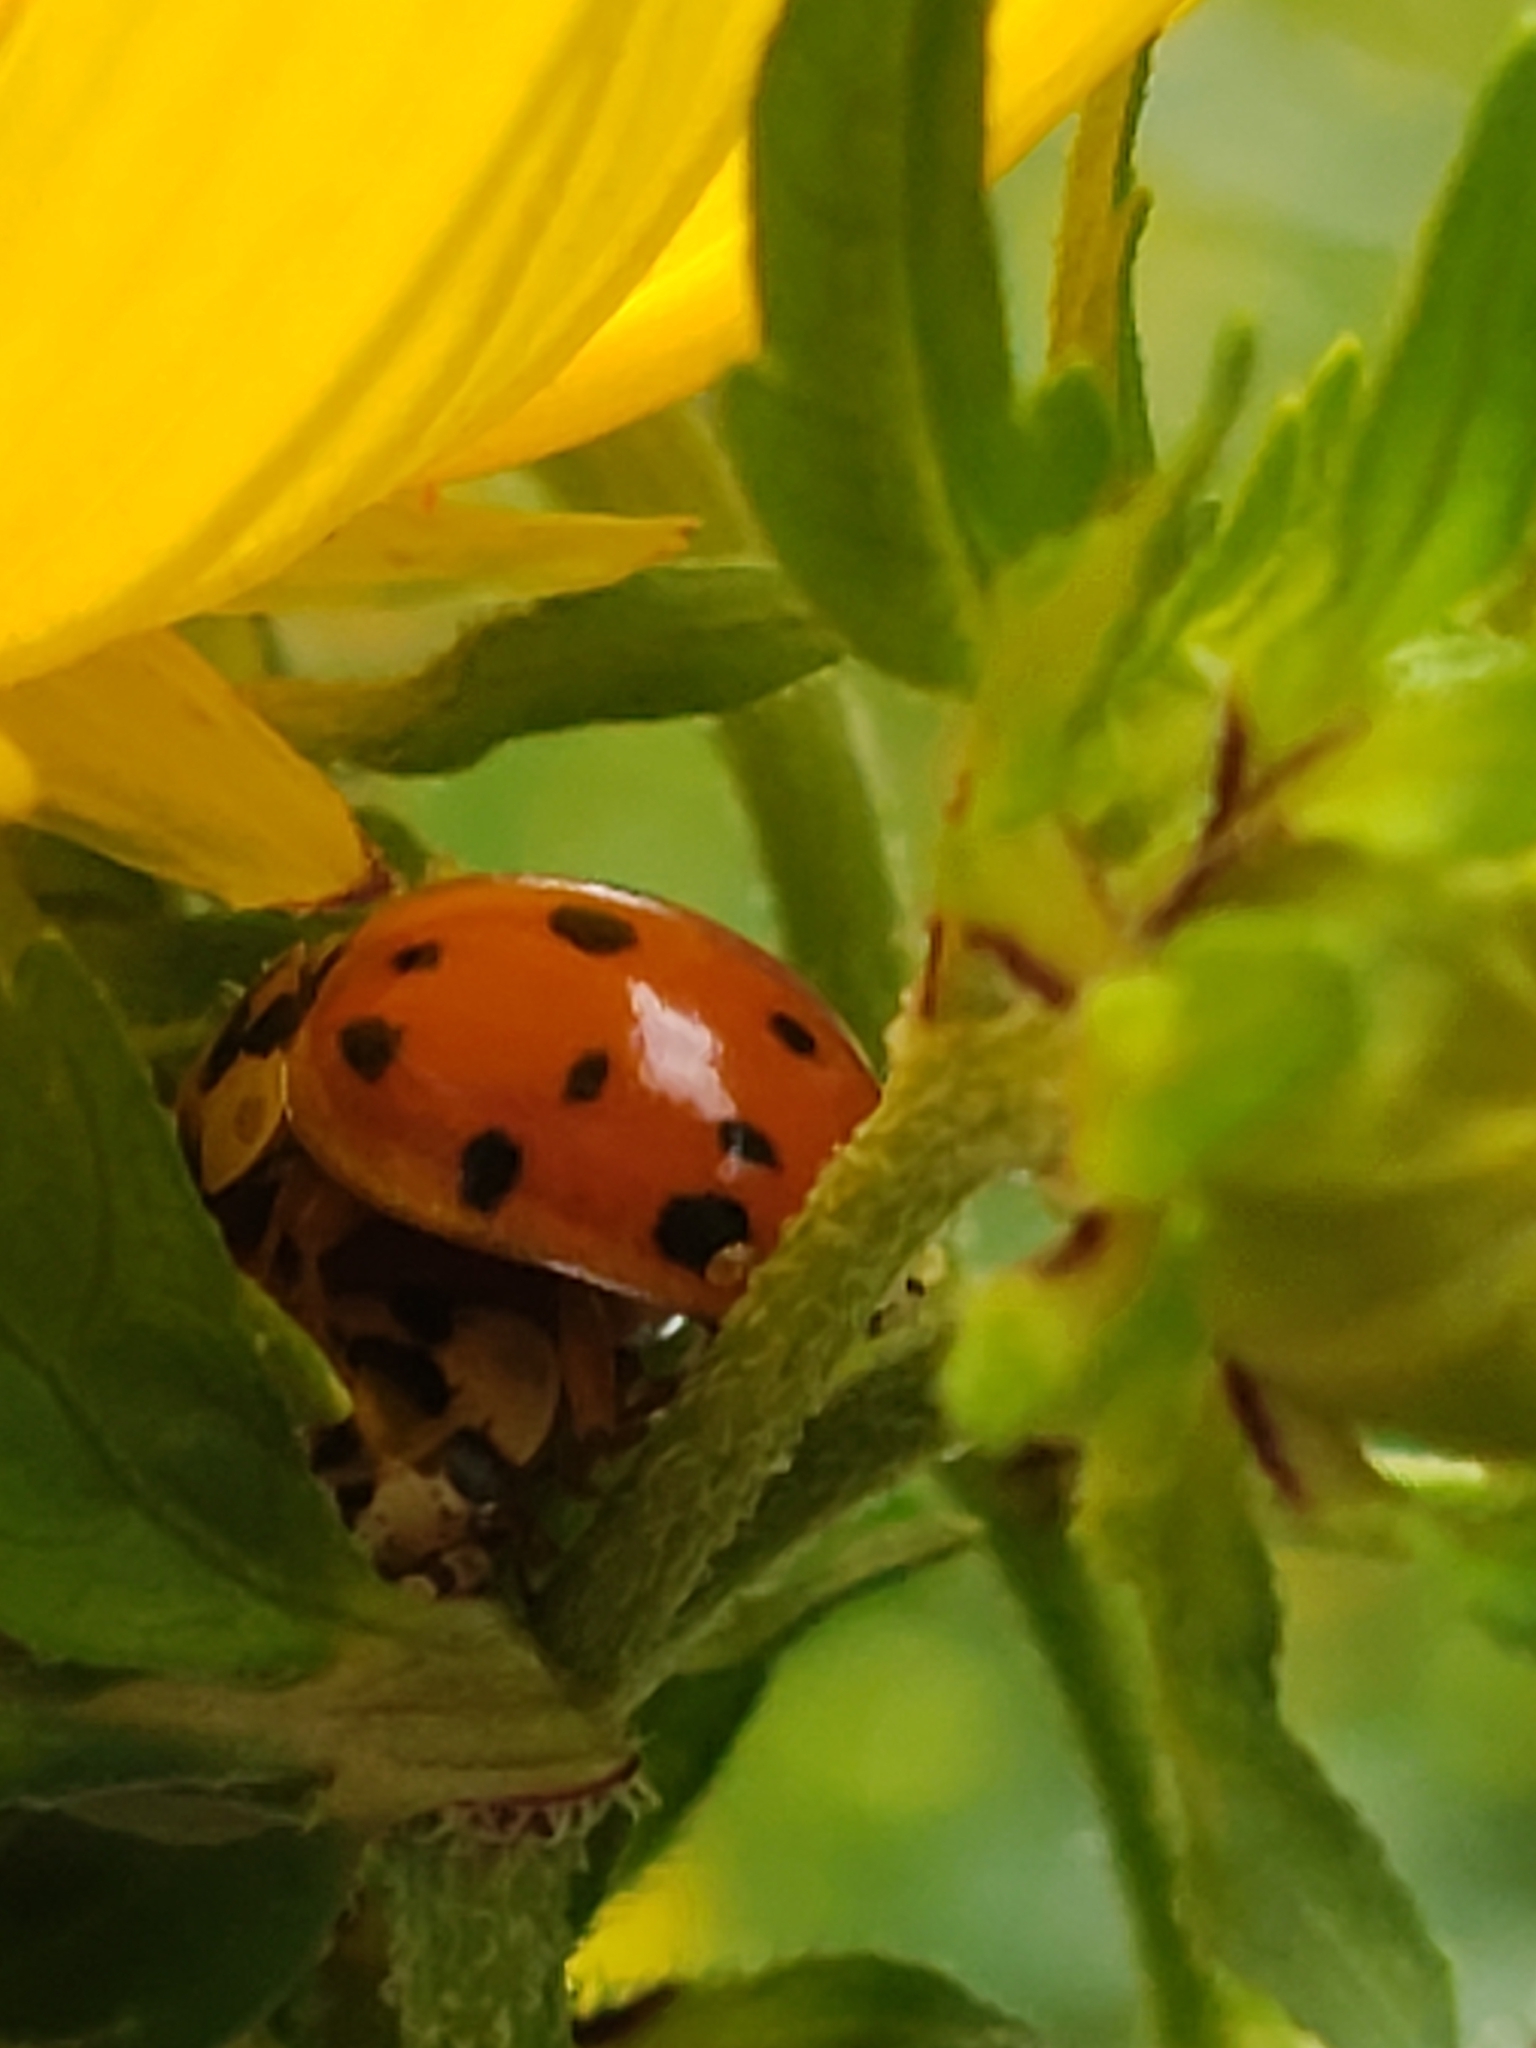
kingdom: Animalia
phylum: Arthropoda
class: Insecta
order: Coleoptera
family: Coccinellidae
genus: Harmonia
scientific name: Harmonia axyridis
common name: Harlequin ladybird
